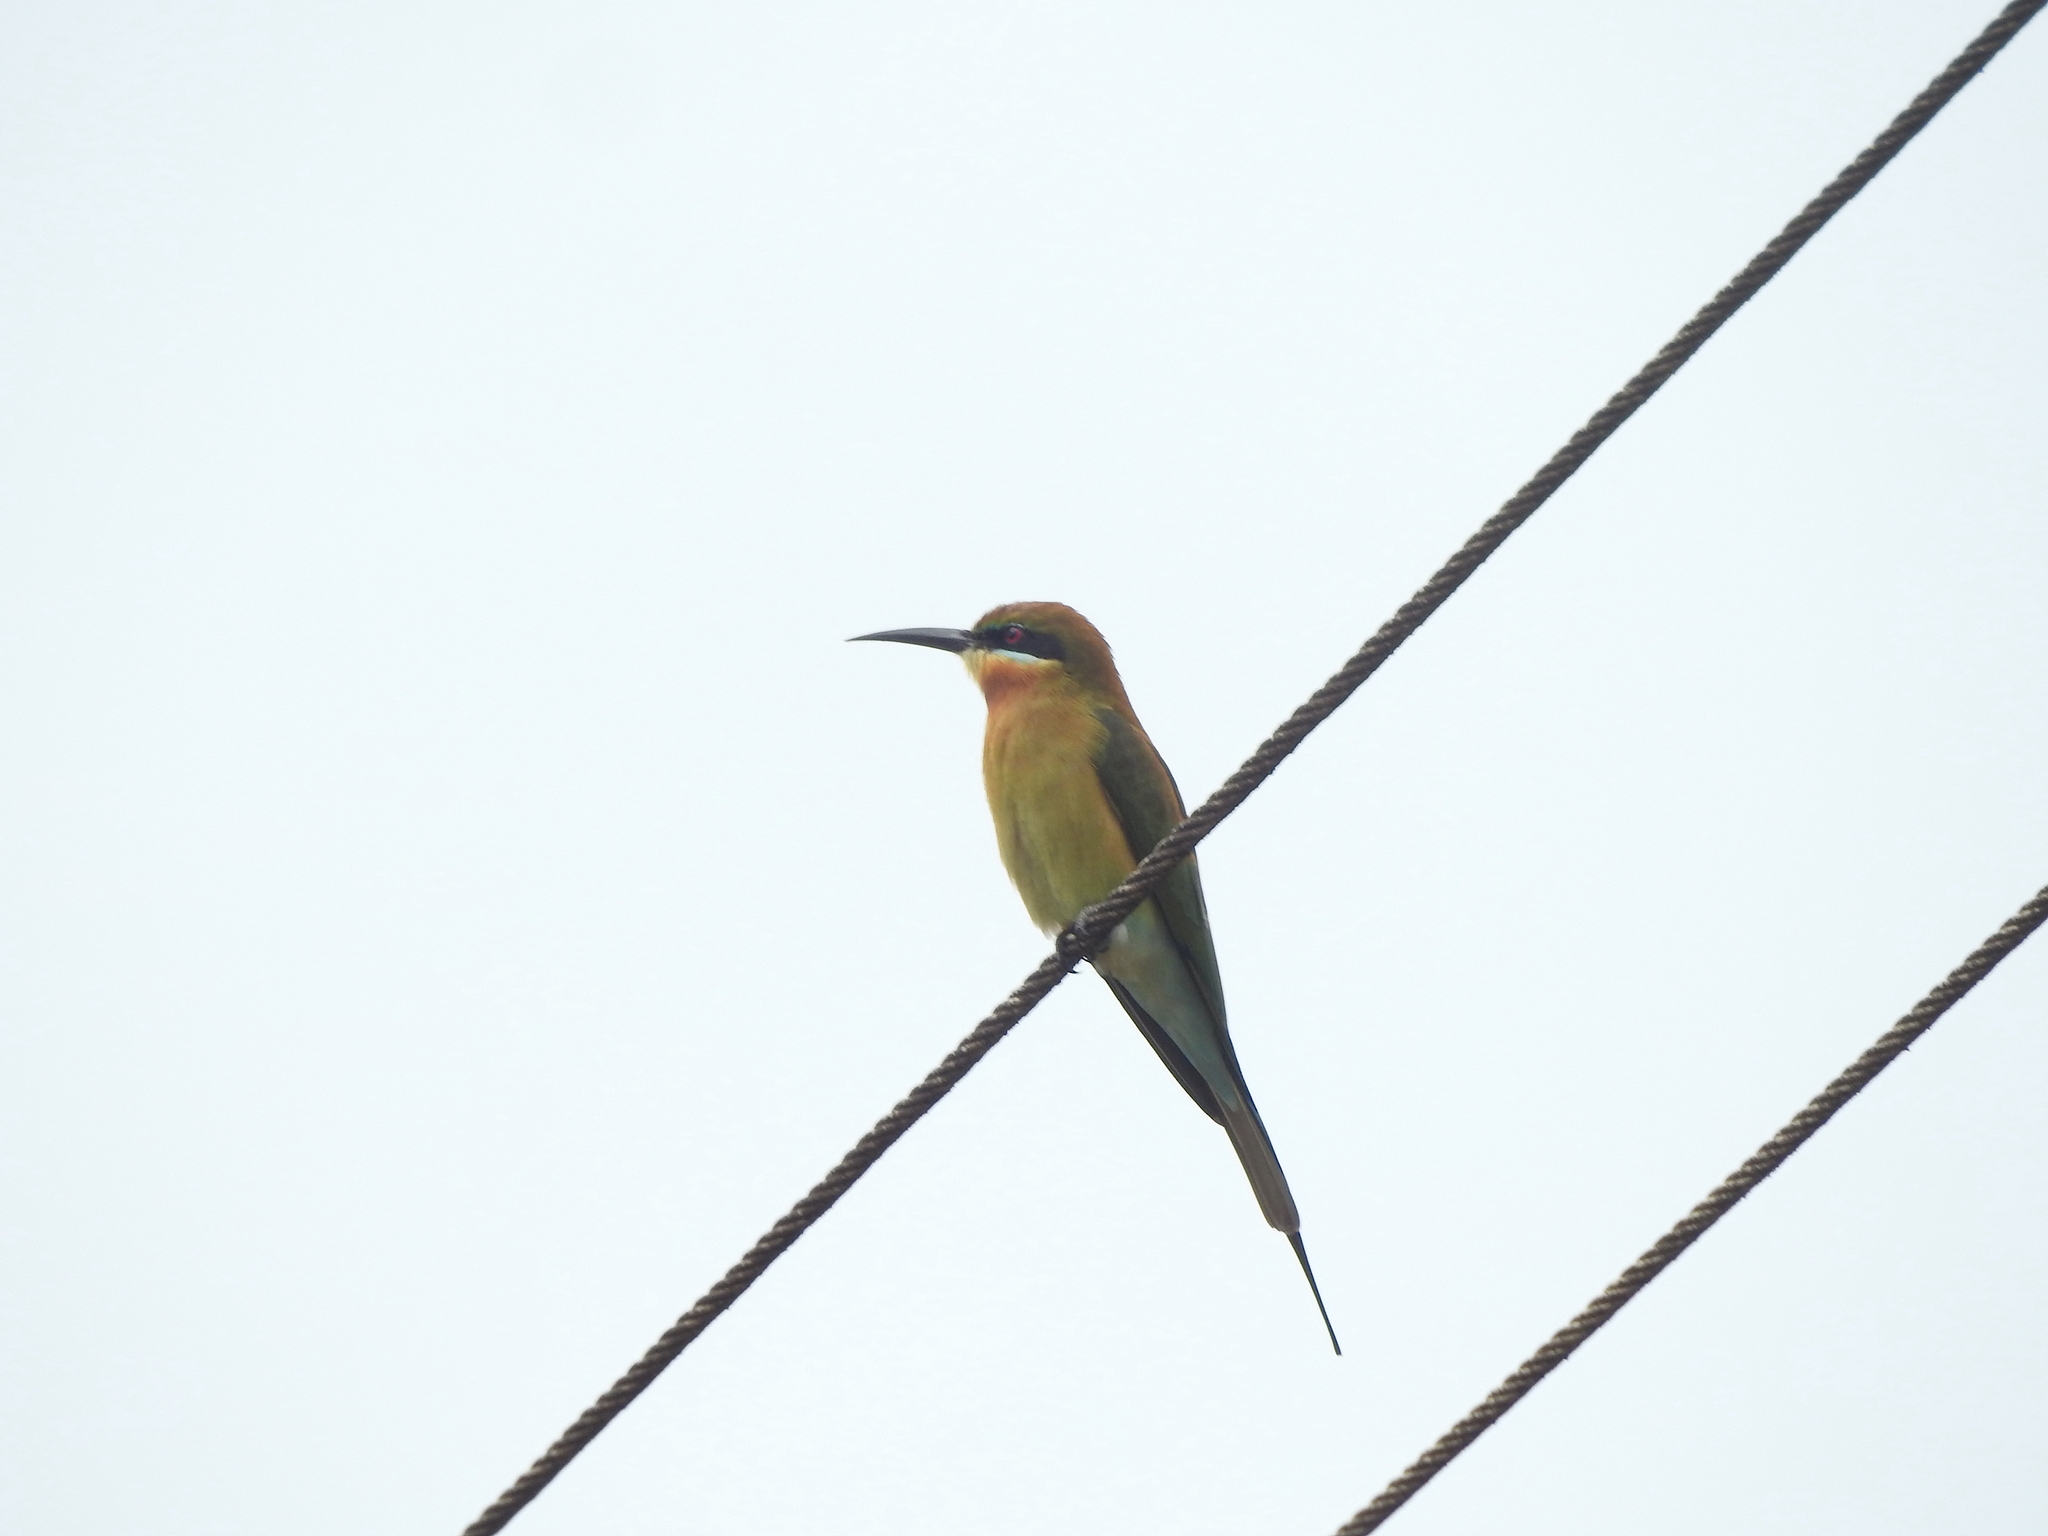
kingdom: Animalia
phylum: Chordata
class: Aves
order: Coraciiformes
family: Meropidae
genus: Merops
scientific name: Merops philippinus
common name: Blue-tailed bee-eater
